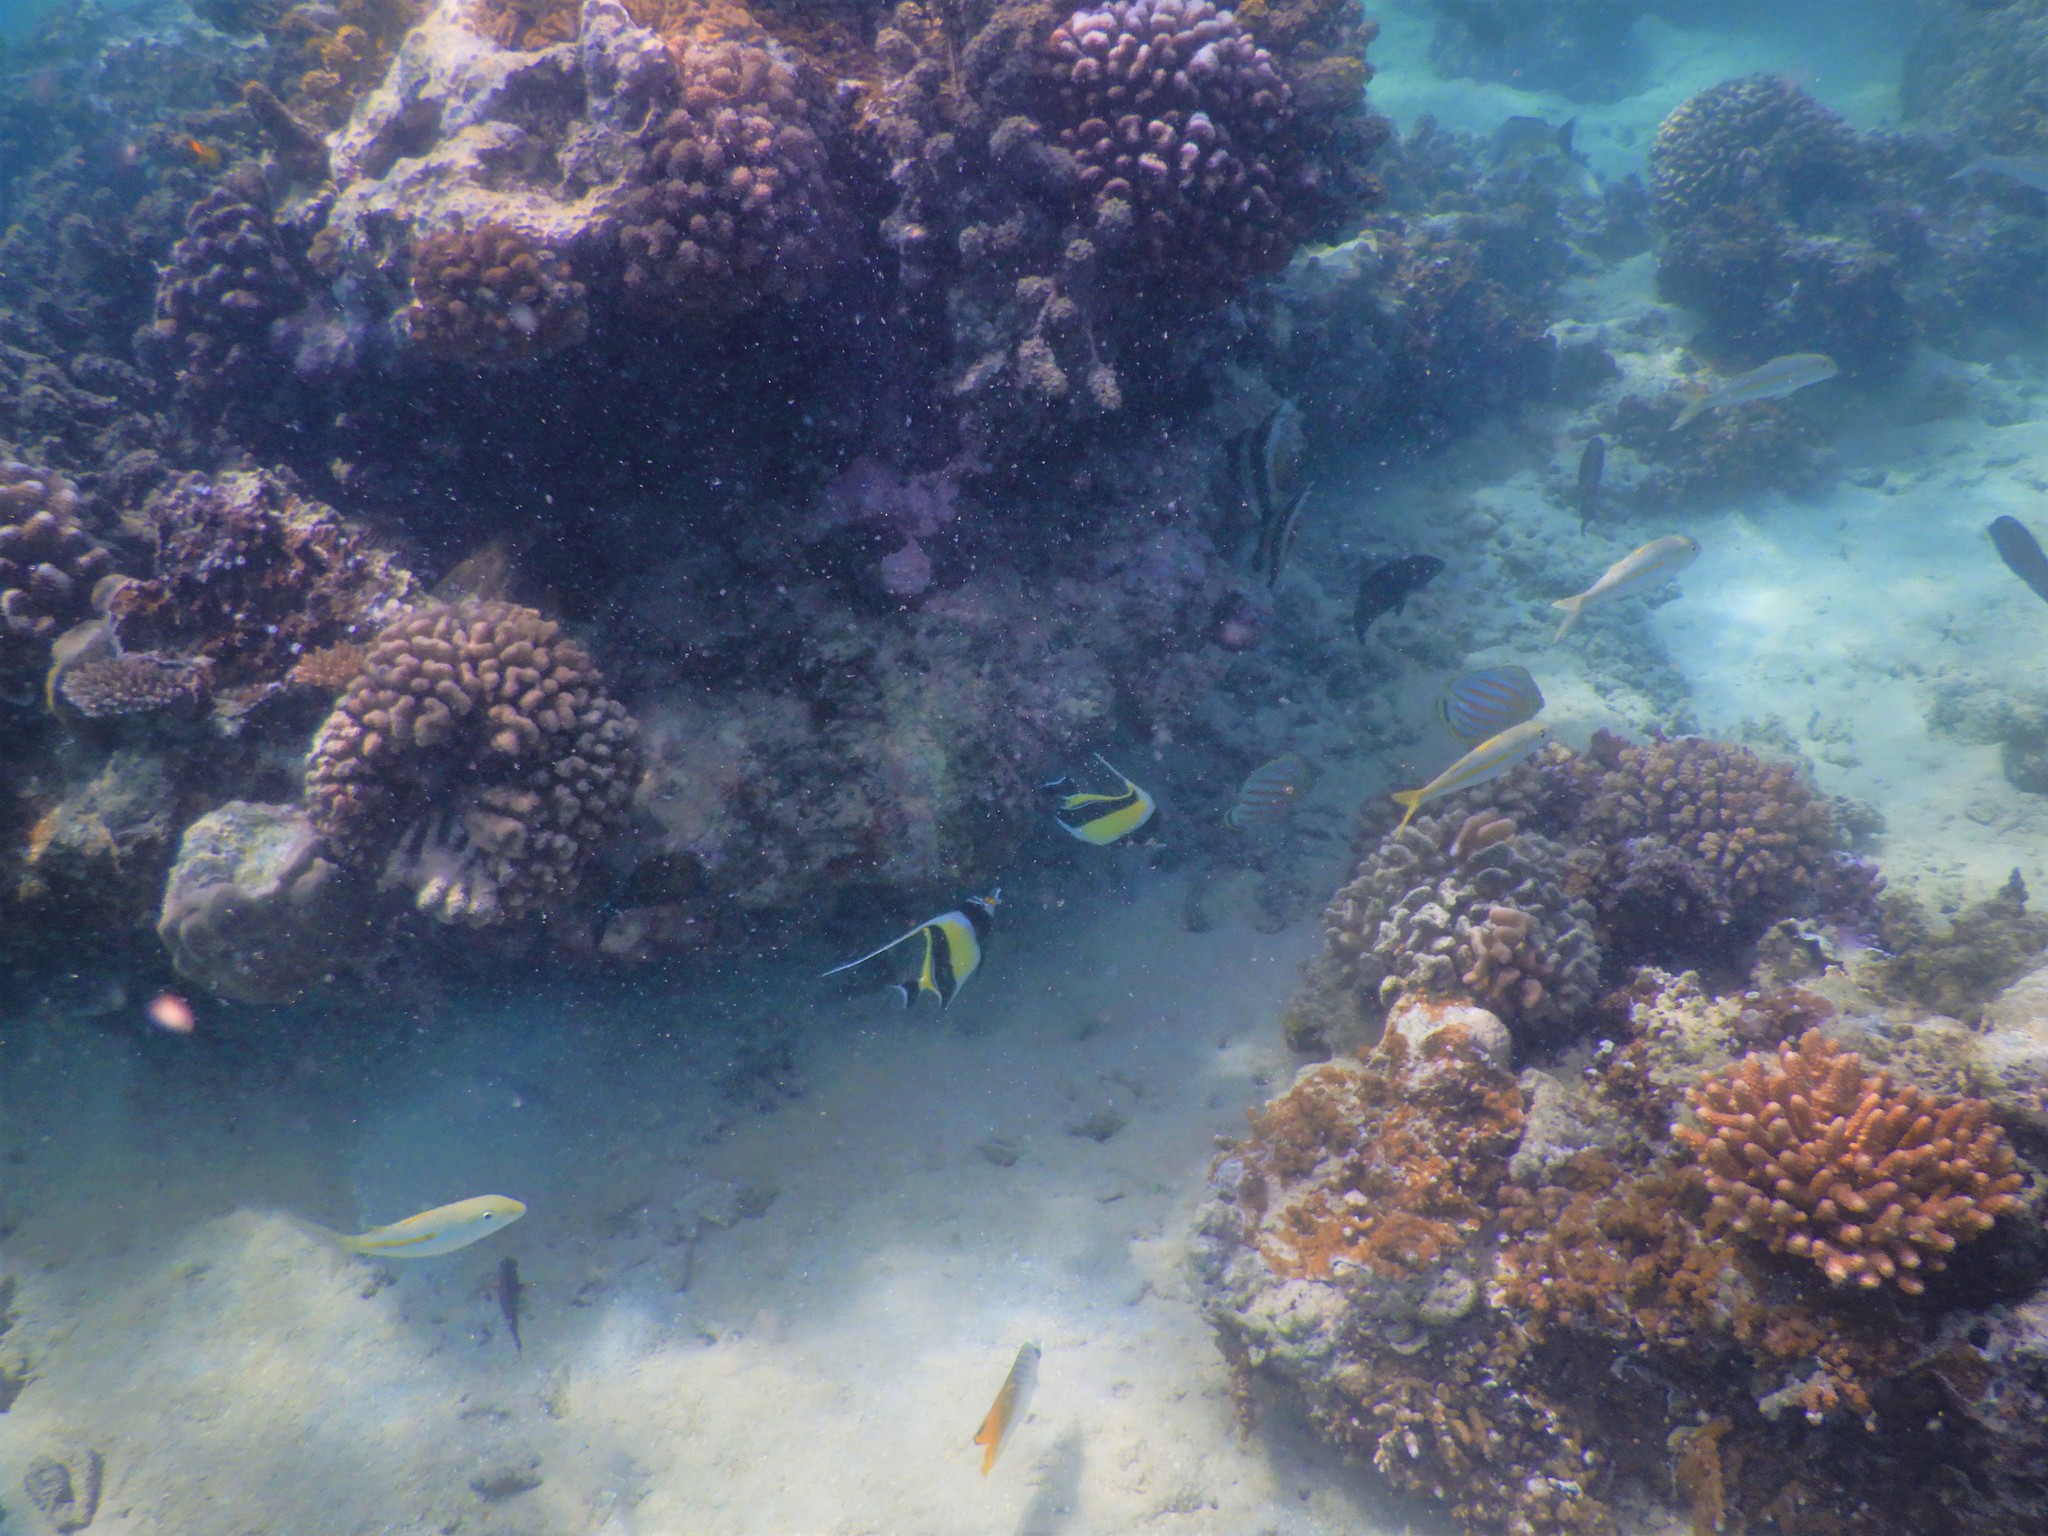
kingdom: Animalia
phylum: Chordata
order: Perciformes
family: Zanclidae
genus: Zanclus
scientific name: Zanclus cornutus
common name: Moorish idol
